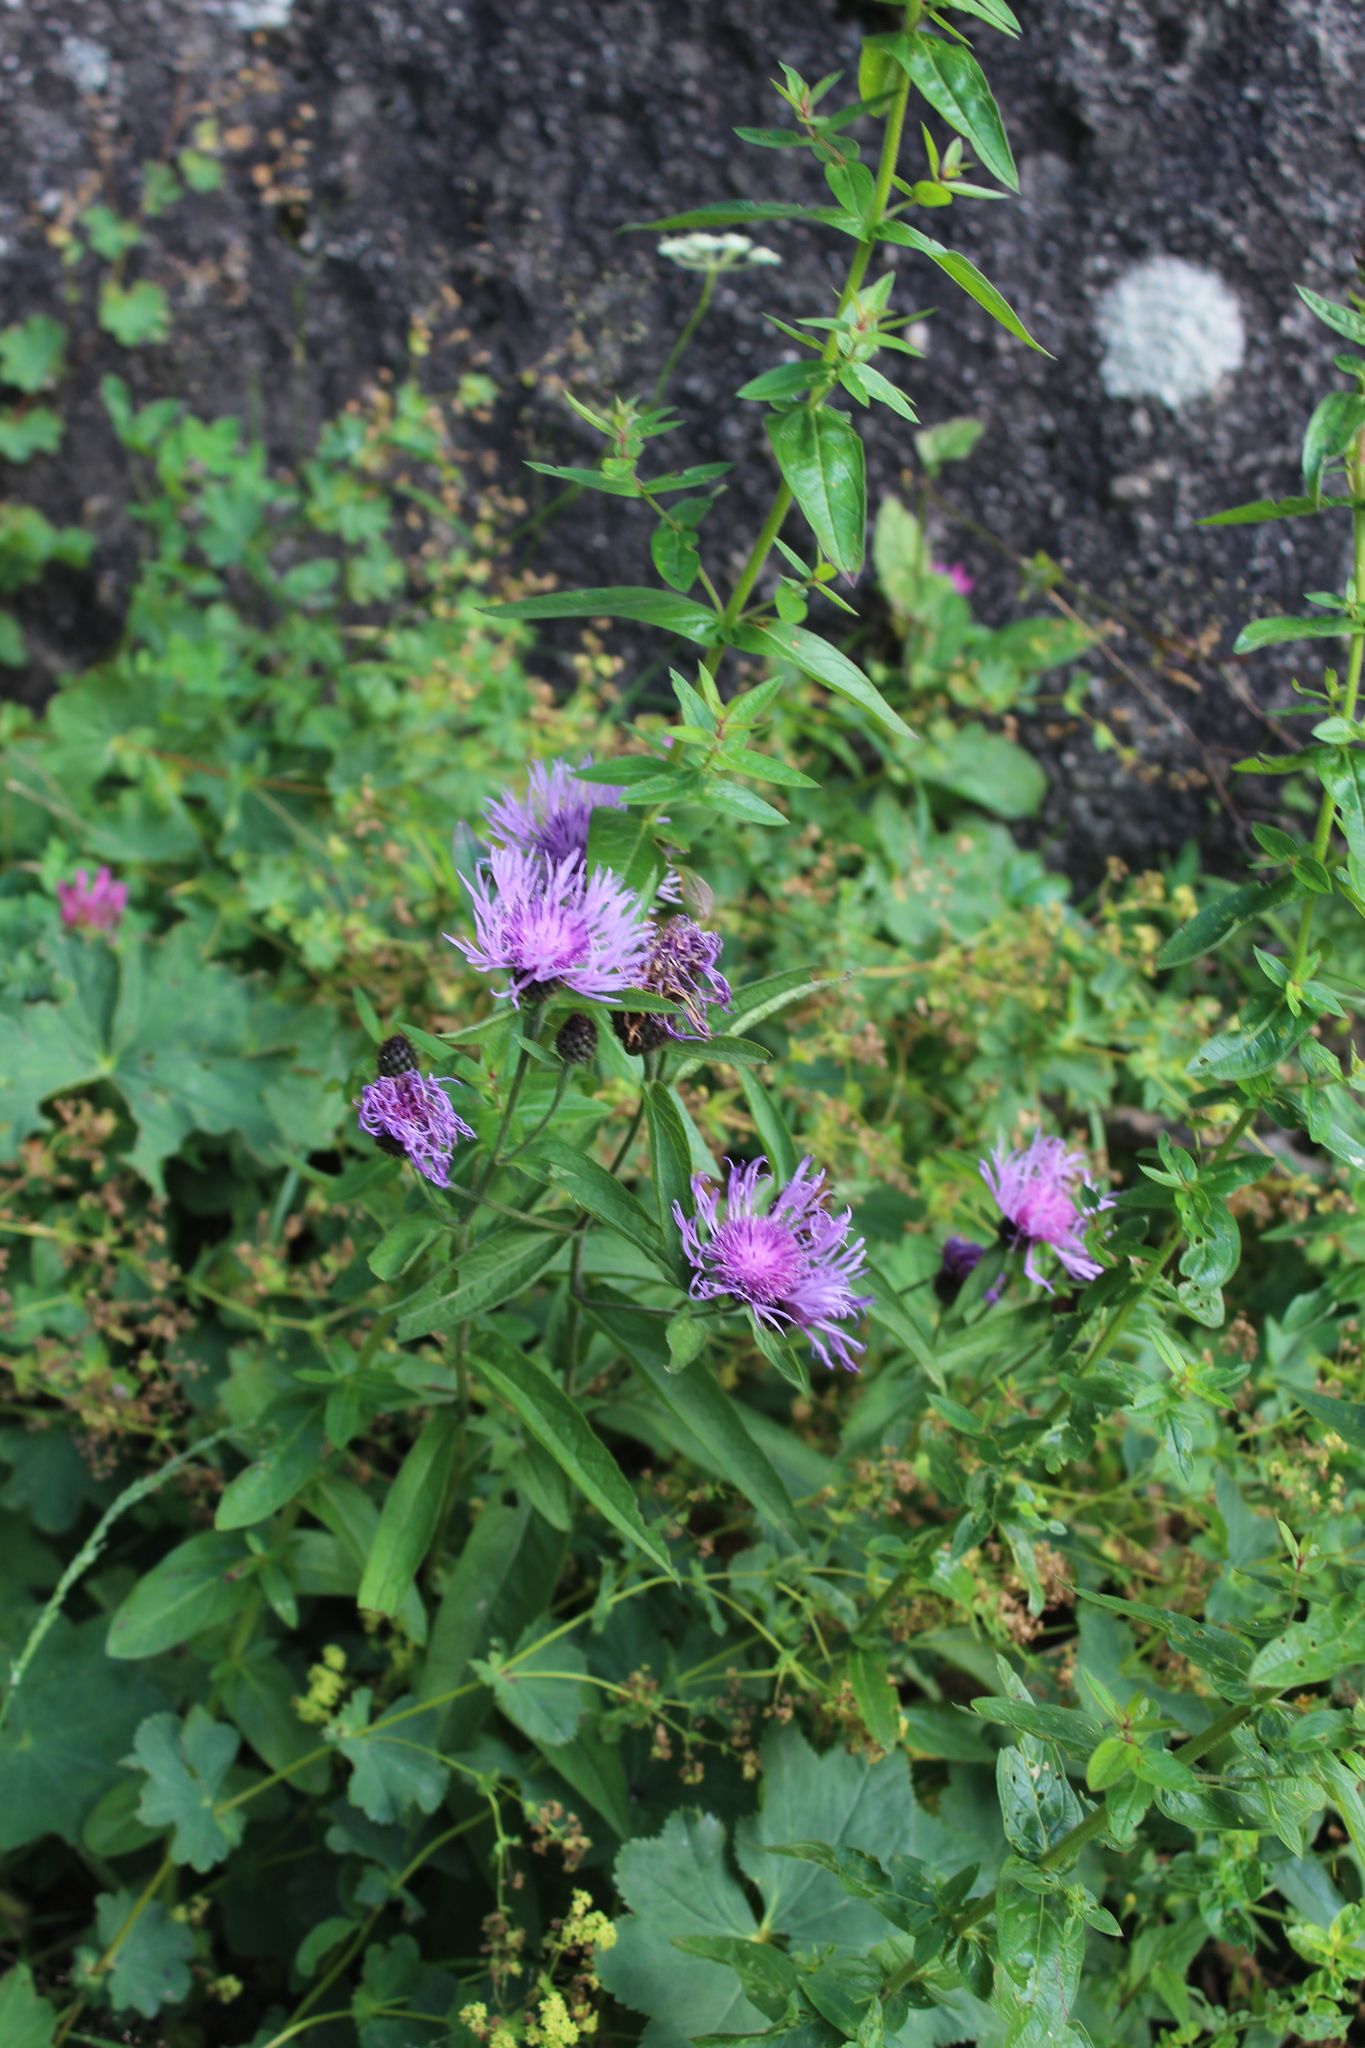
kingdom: Plantae
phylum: Tracheophyta
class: Magnoliopsida
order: Asterales
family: Asteraceae
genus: Centaurea
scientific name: Centaurea phrygia
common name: Wig knapweed
